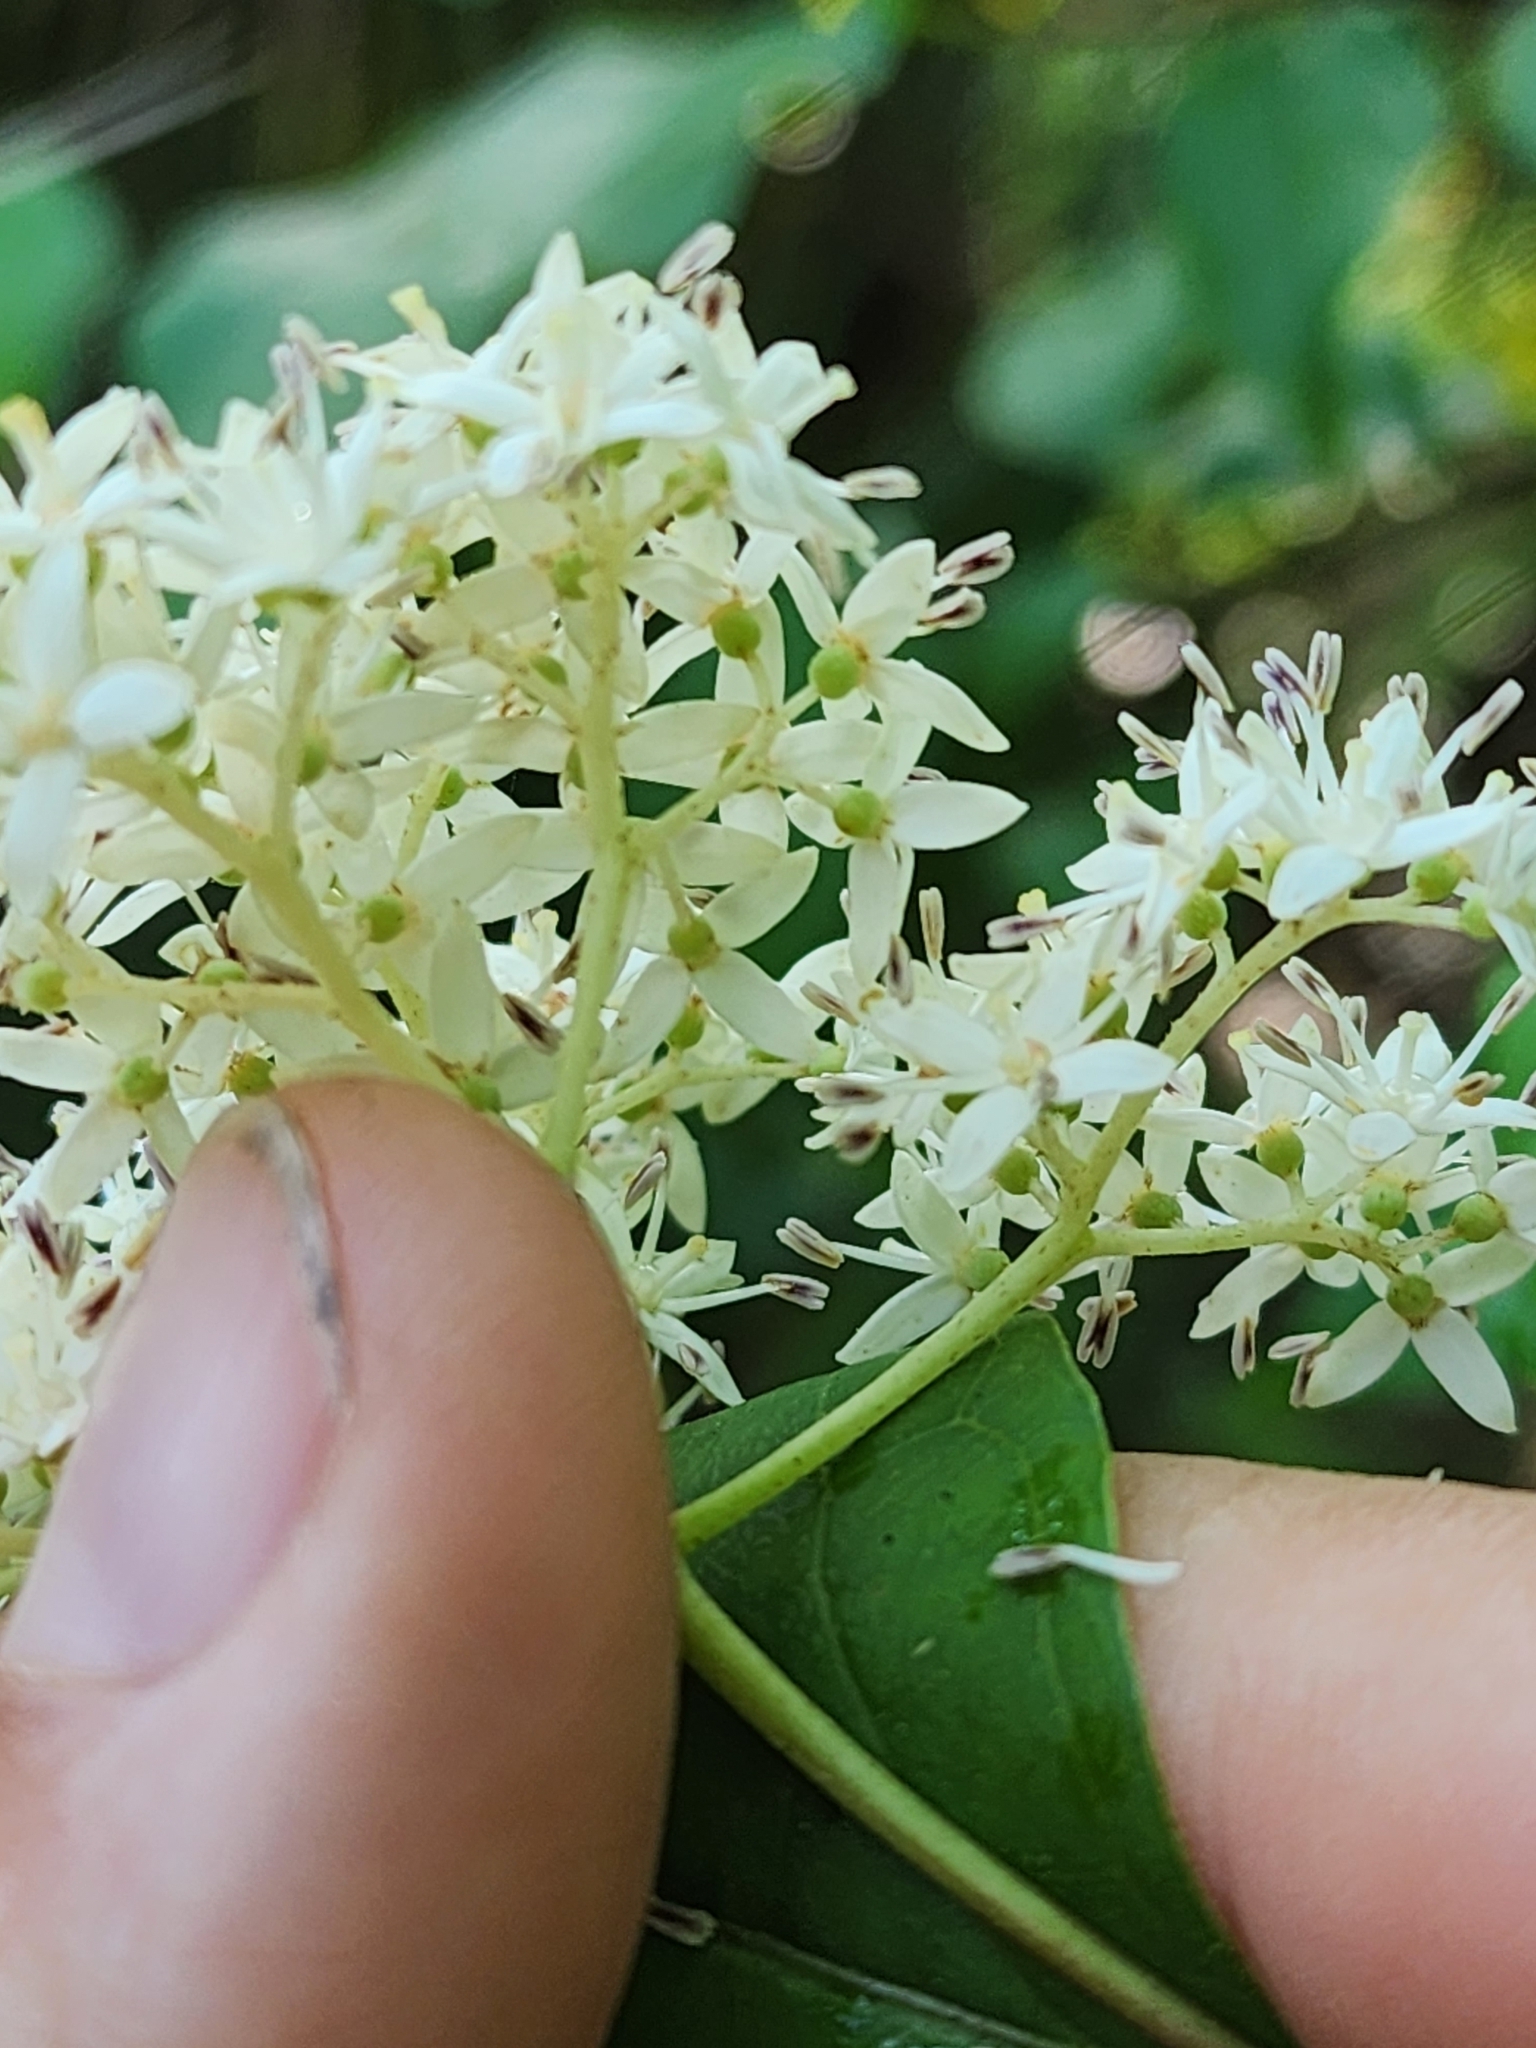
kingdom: Plantae
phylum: Tracheophyta
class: Magnoliopsida
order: Cornales
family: Cornaceae
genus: Cornus
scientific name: Cornus foemina
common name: Swamp dogwood
